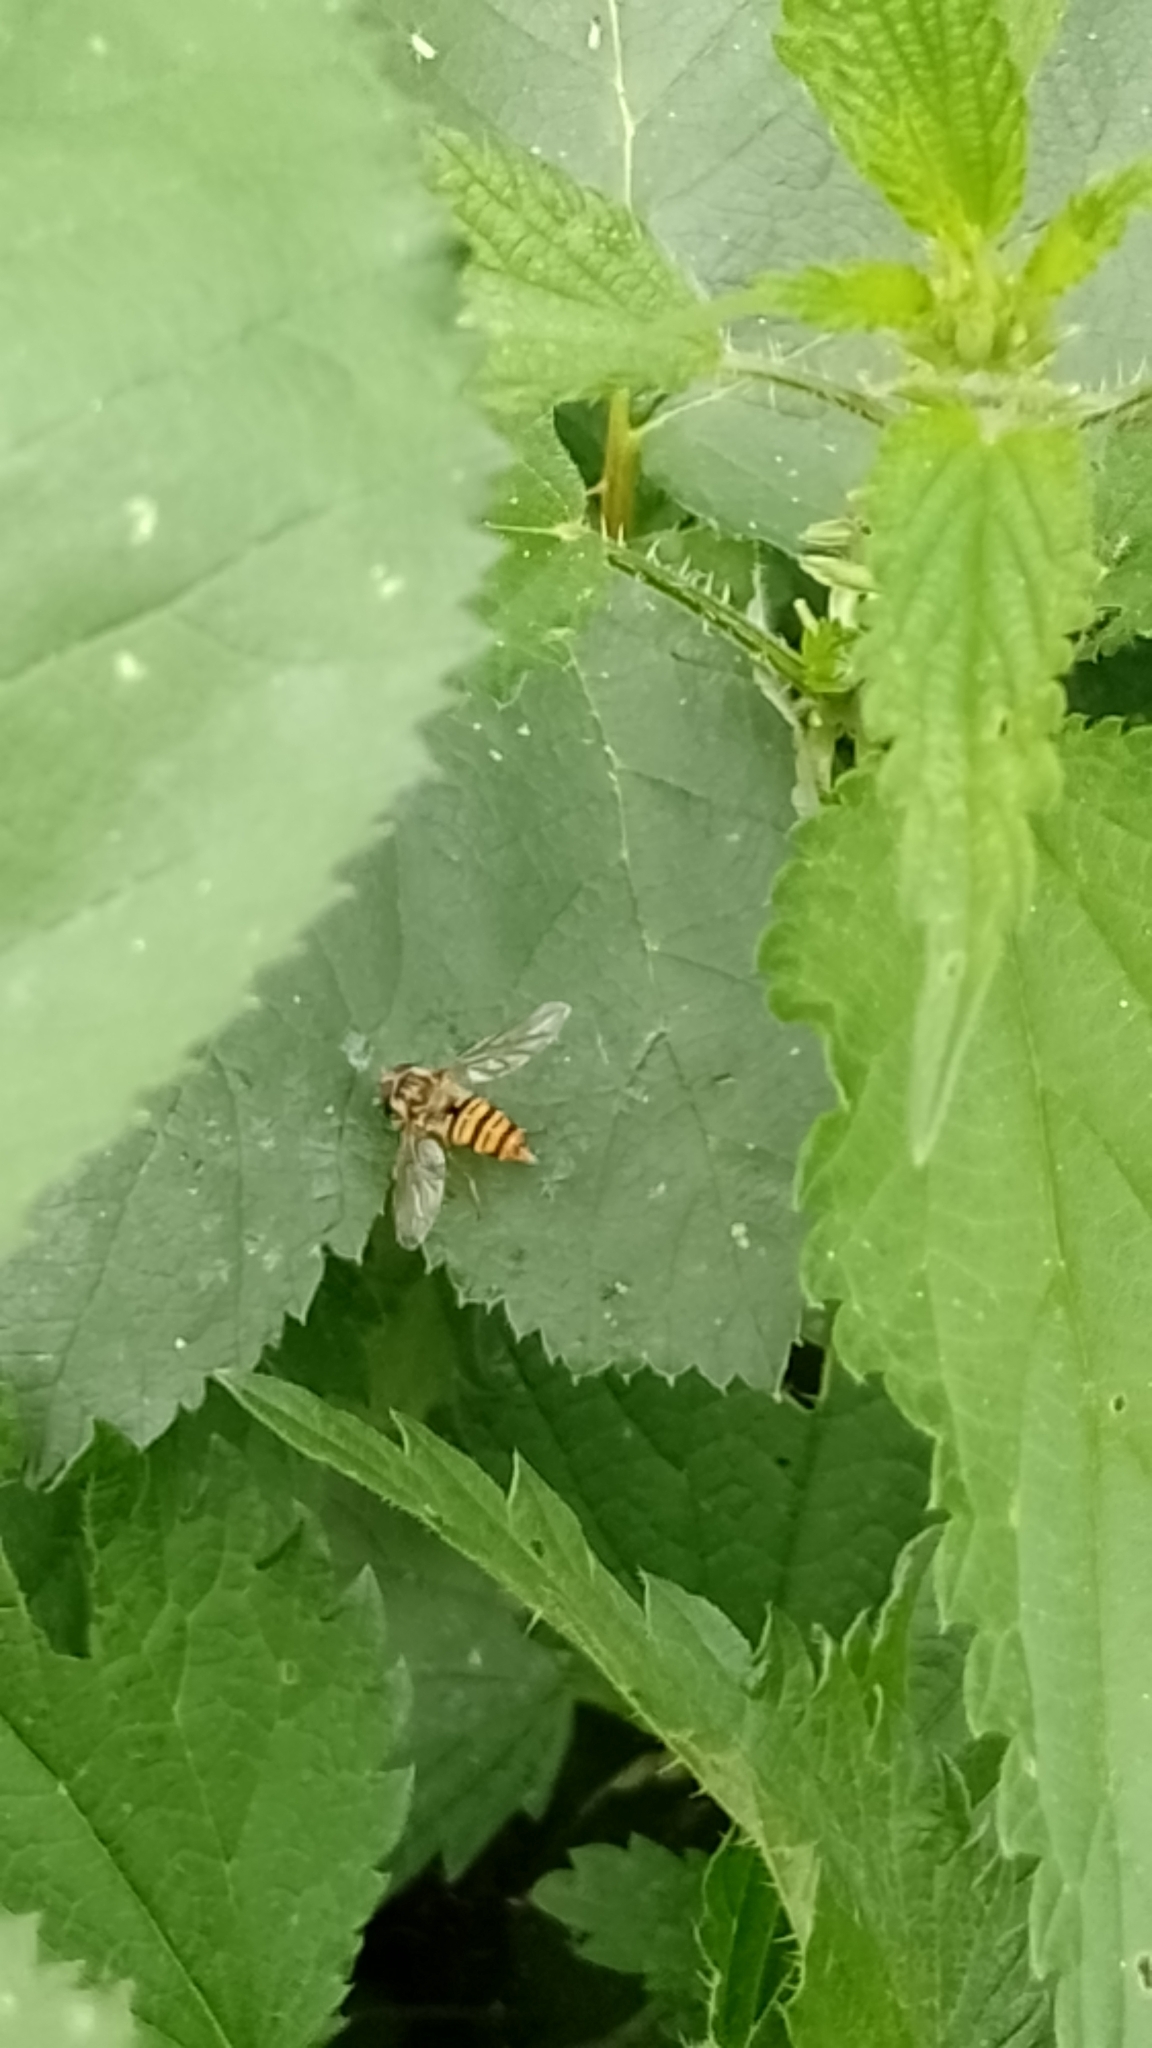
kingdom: Animalia
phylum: Arthropoda
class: Insecta
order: Diptera
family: Syrphidae
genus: Episyrphus
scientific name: Episyrphus balteatus
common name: Marmalade hoverfly
